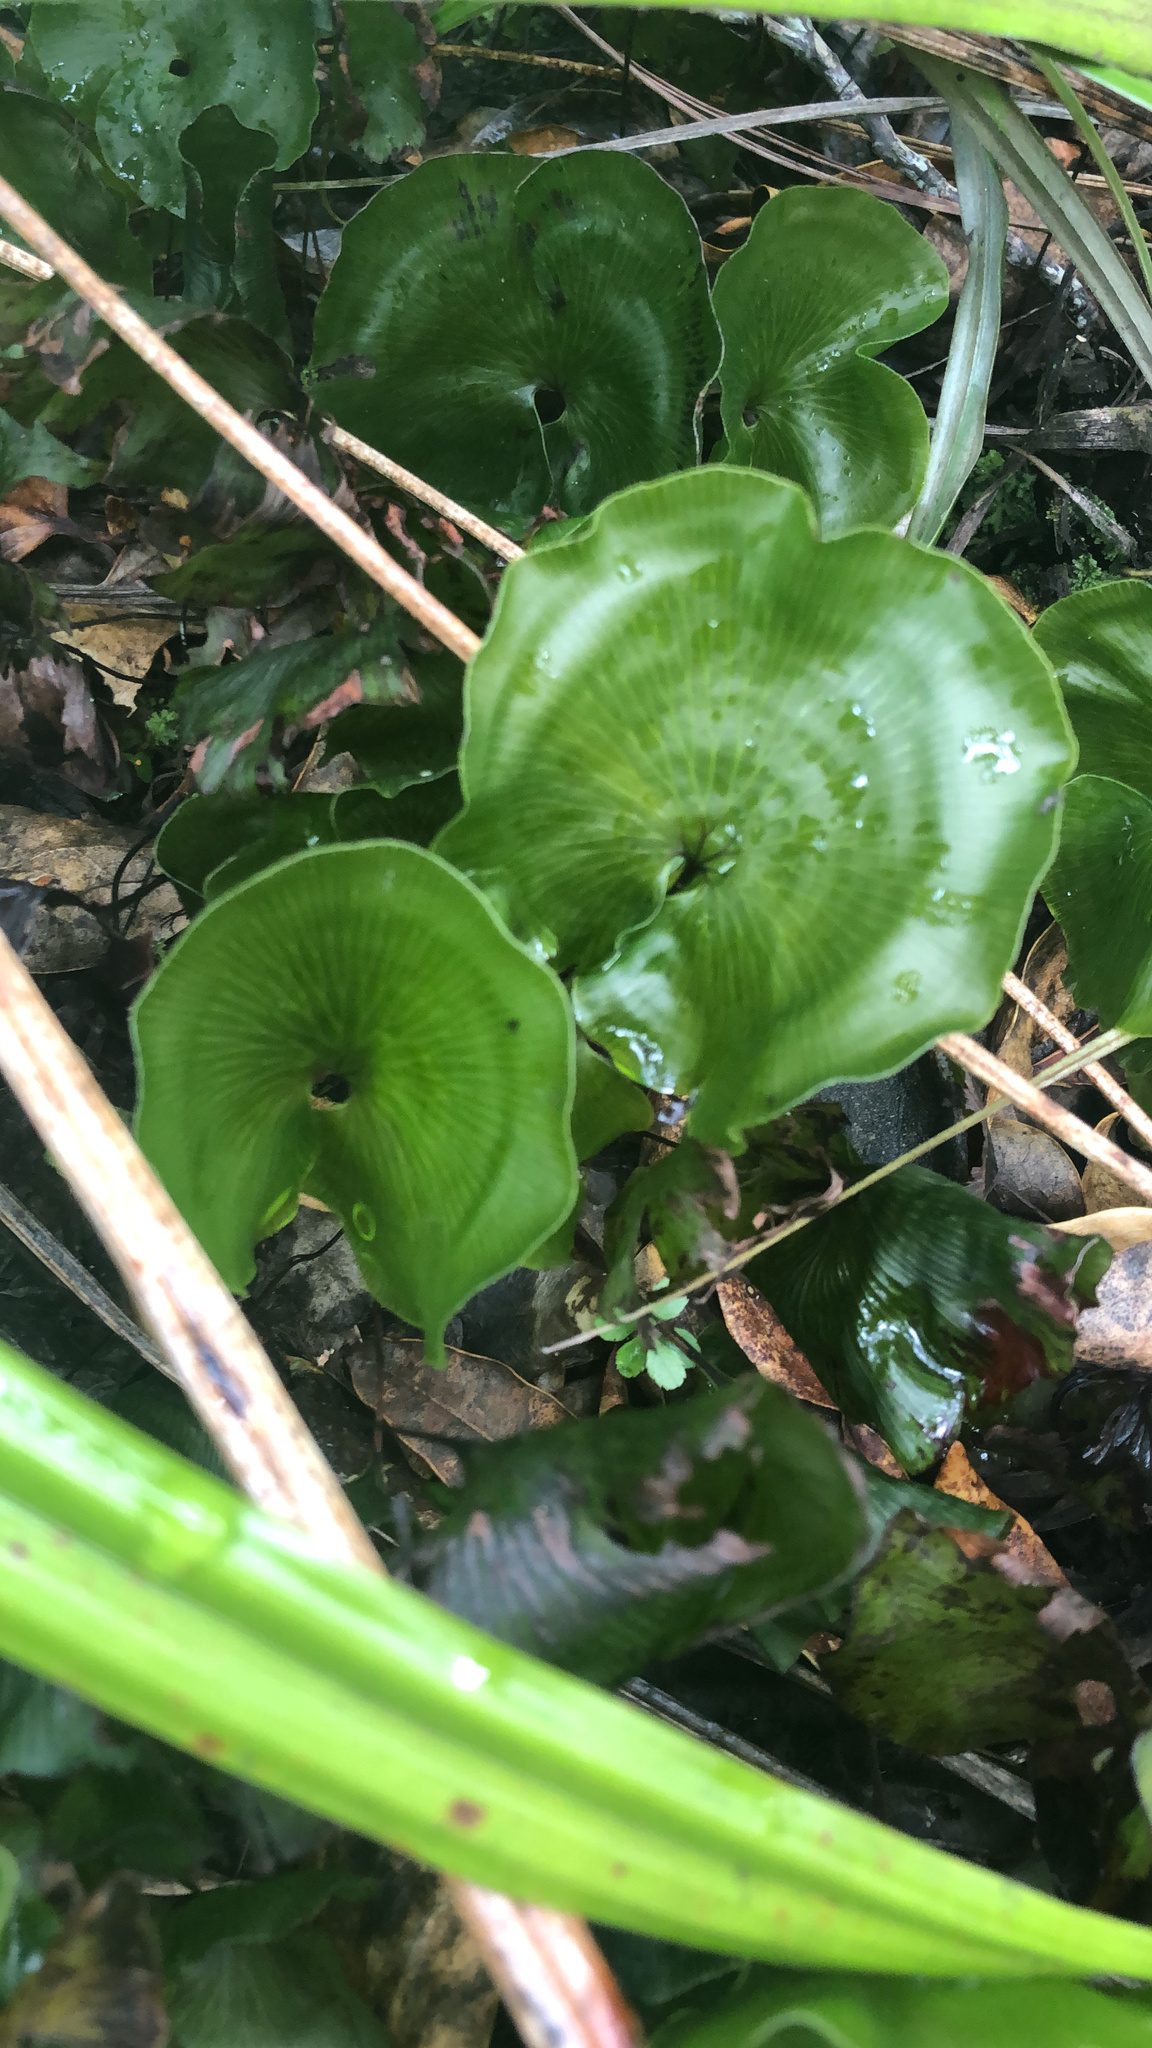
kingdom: Plantae
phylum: Tracheophyta
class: Polypodiopsida
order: Hymenophyllales
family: Hymenophyllaceae
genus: Hymenophyllum
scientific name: Hymenophyllum nephrophyllum
